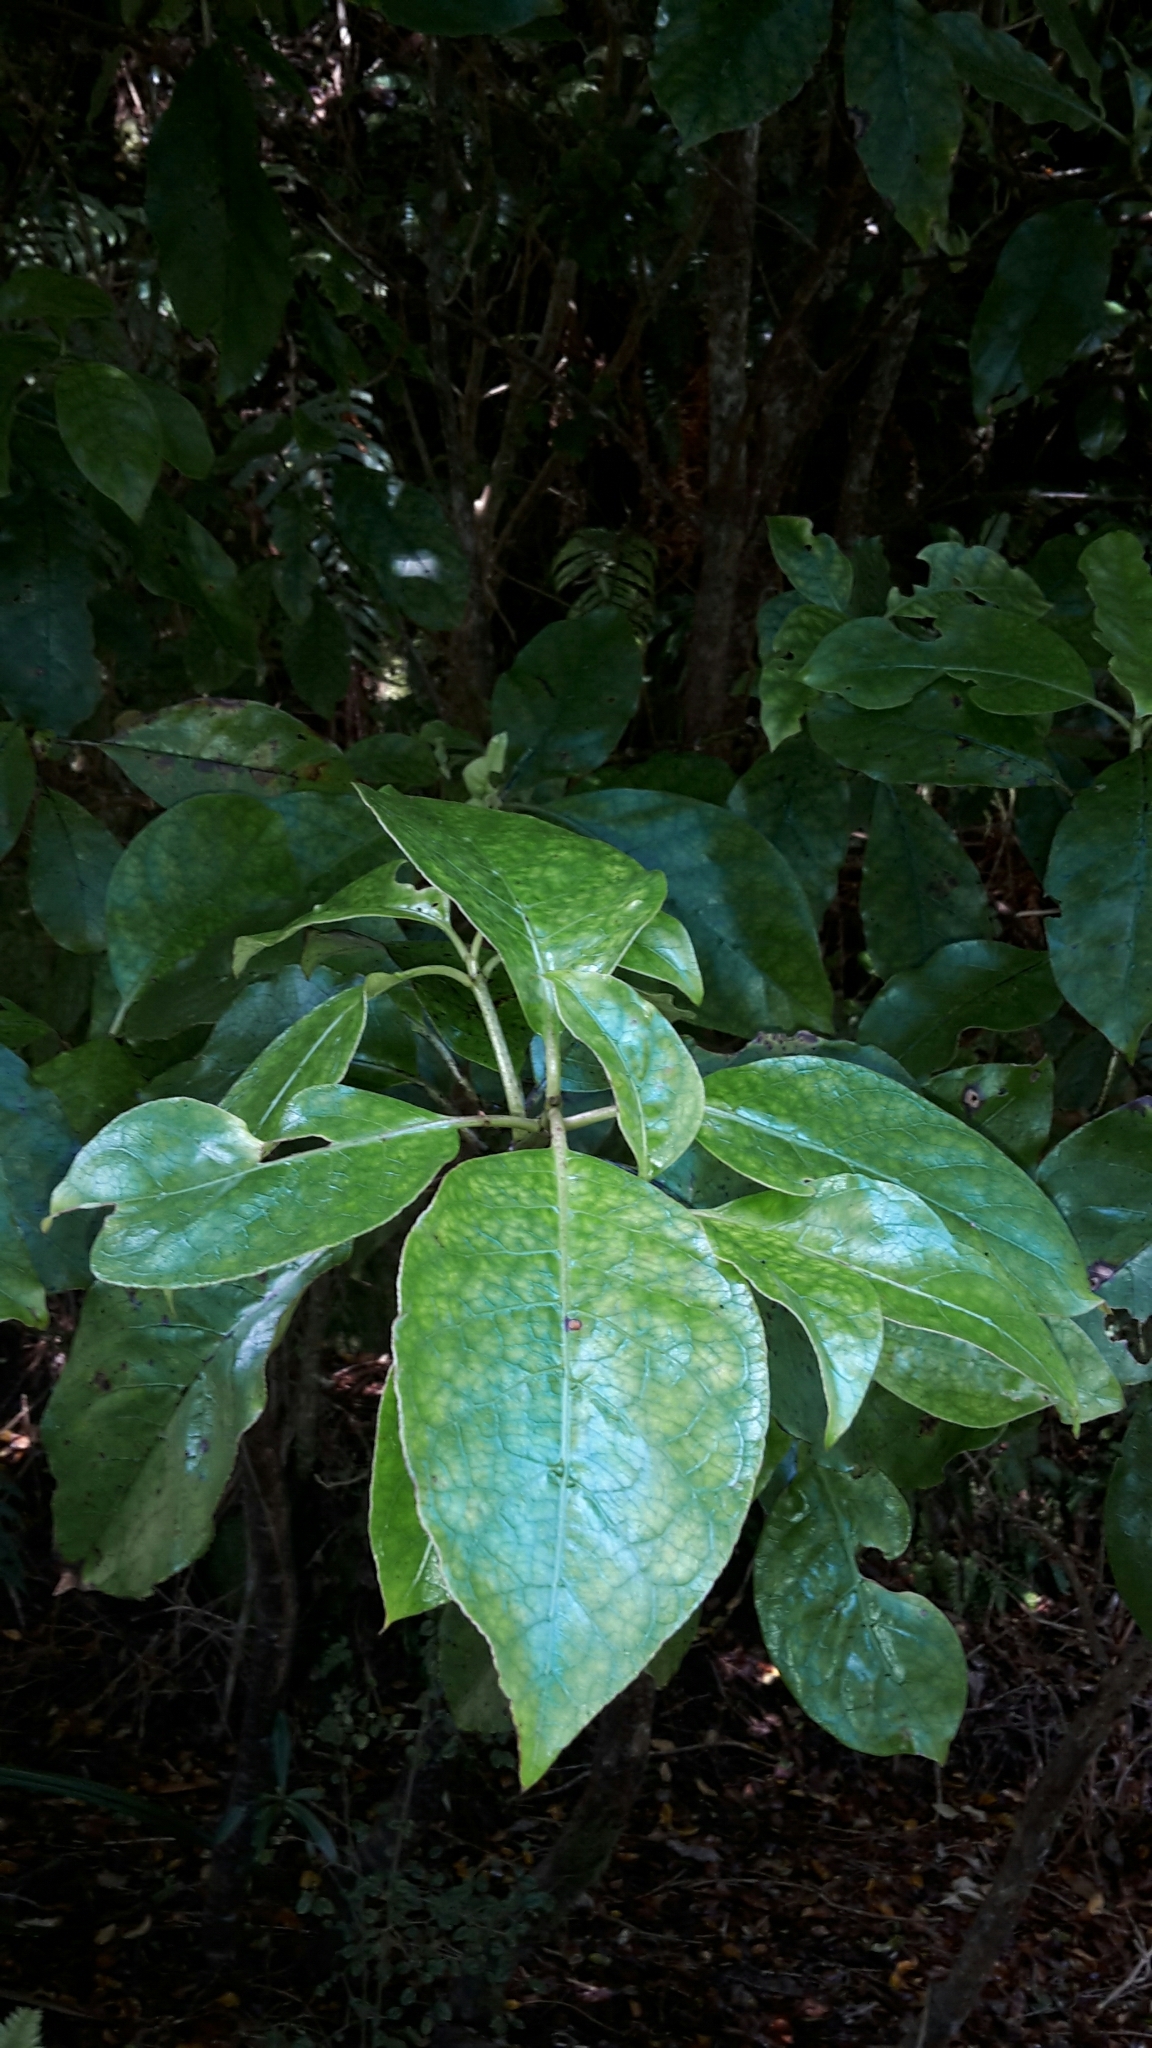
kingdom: Plantae
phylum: Tracheophyta
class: Magnoliopsida
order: Gentianales
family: Rubiaceae
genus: Coprosma
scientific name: Coprosma autumnalis
